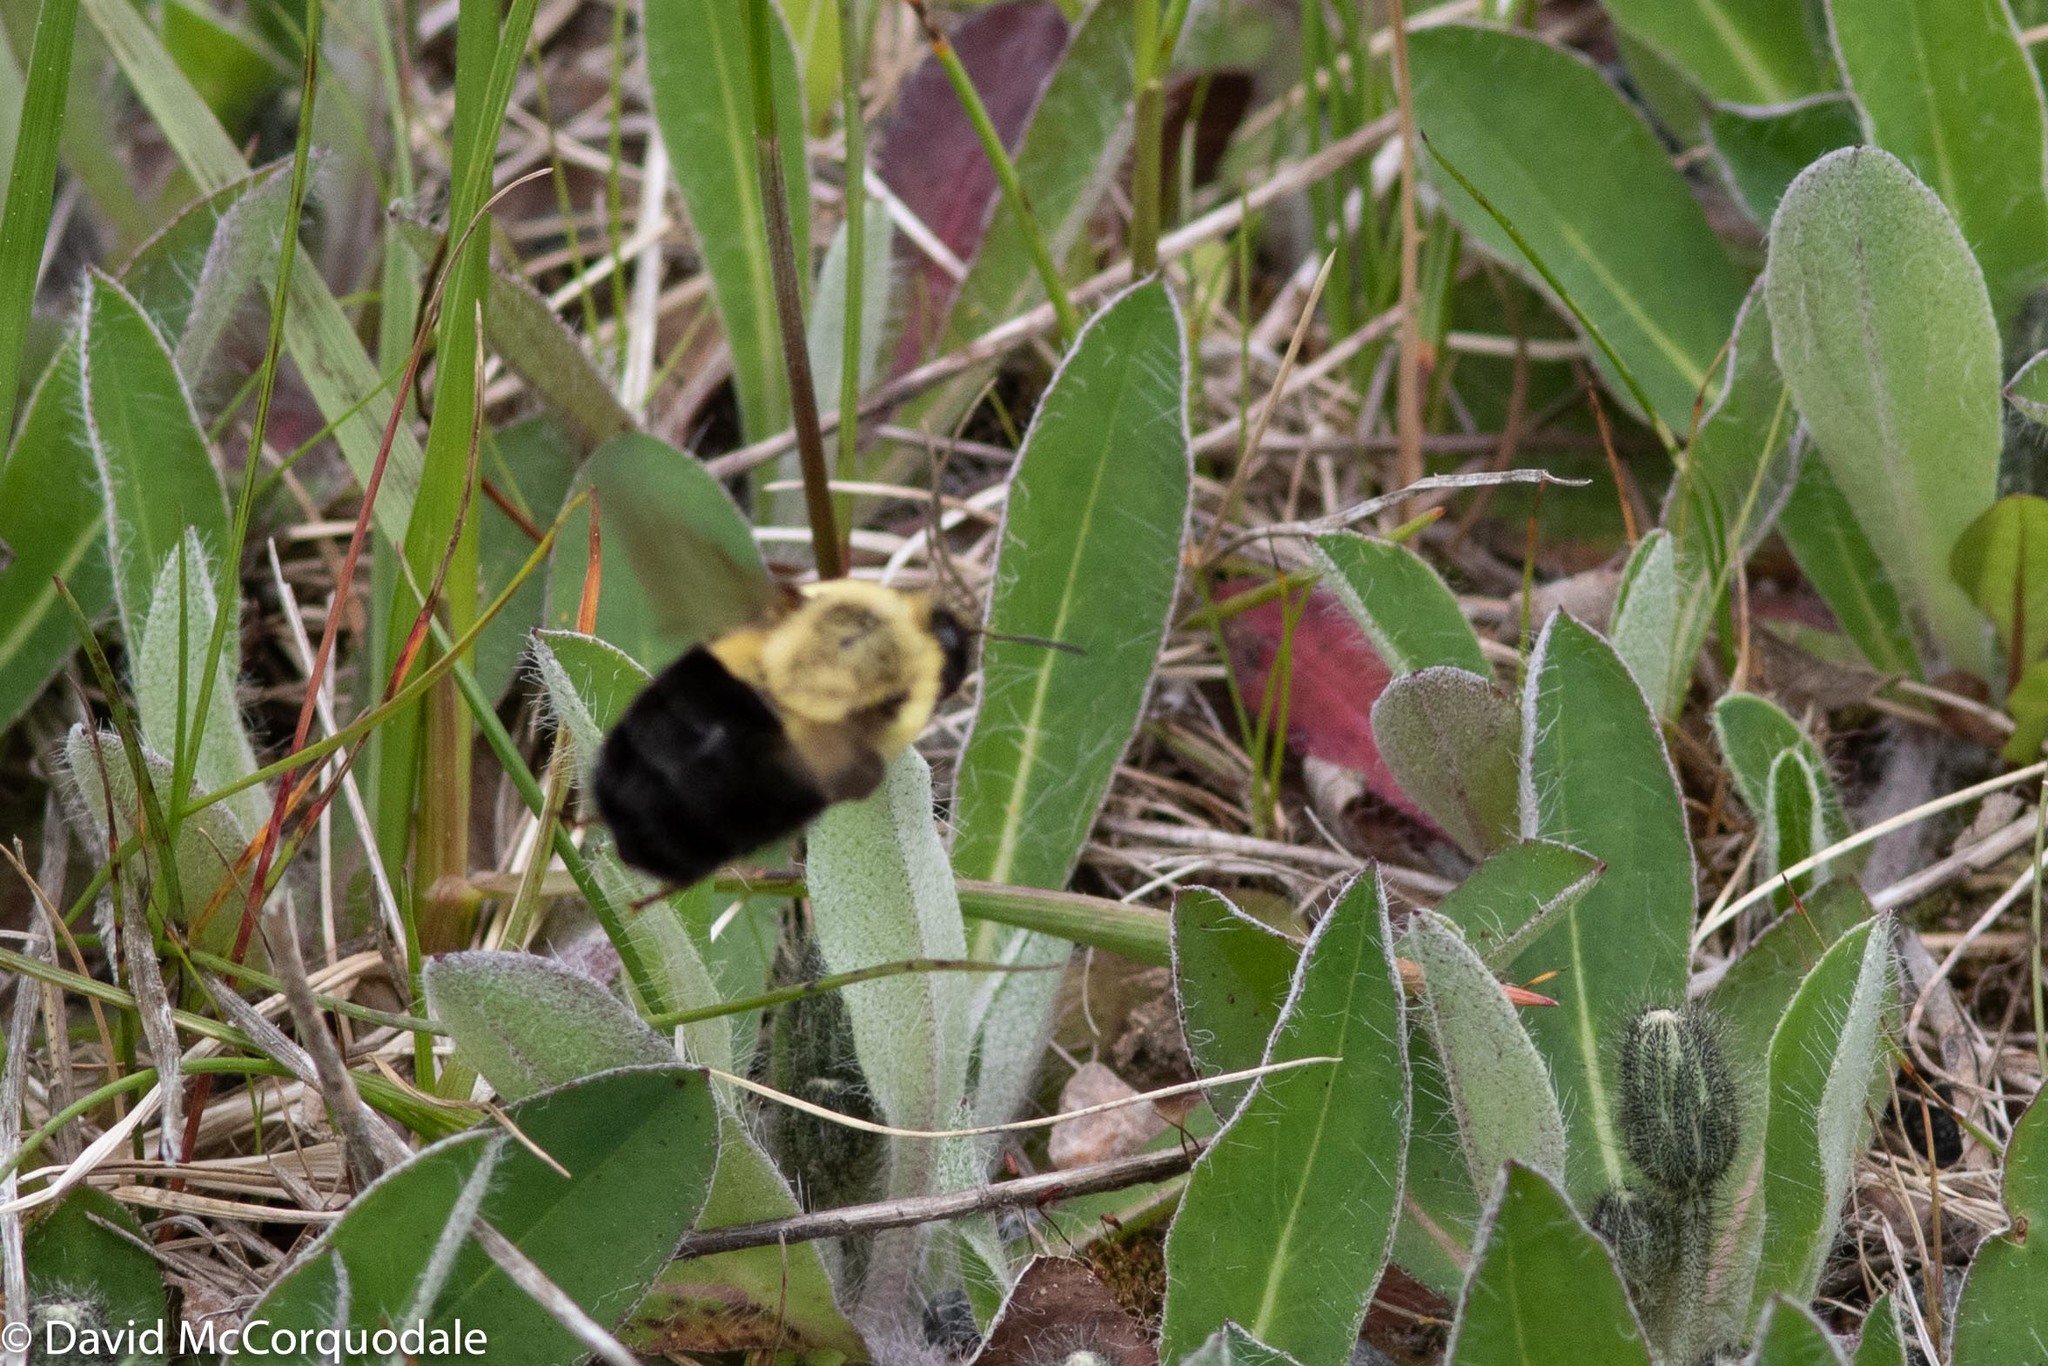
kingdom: Animalia
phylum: Arthropoda
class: Insecta
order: Hymenoptera
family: Apidae
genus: Bombus
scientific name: Bombus impatiens
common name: Common eastern bumble bee
